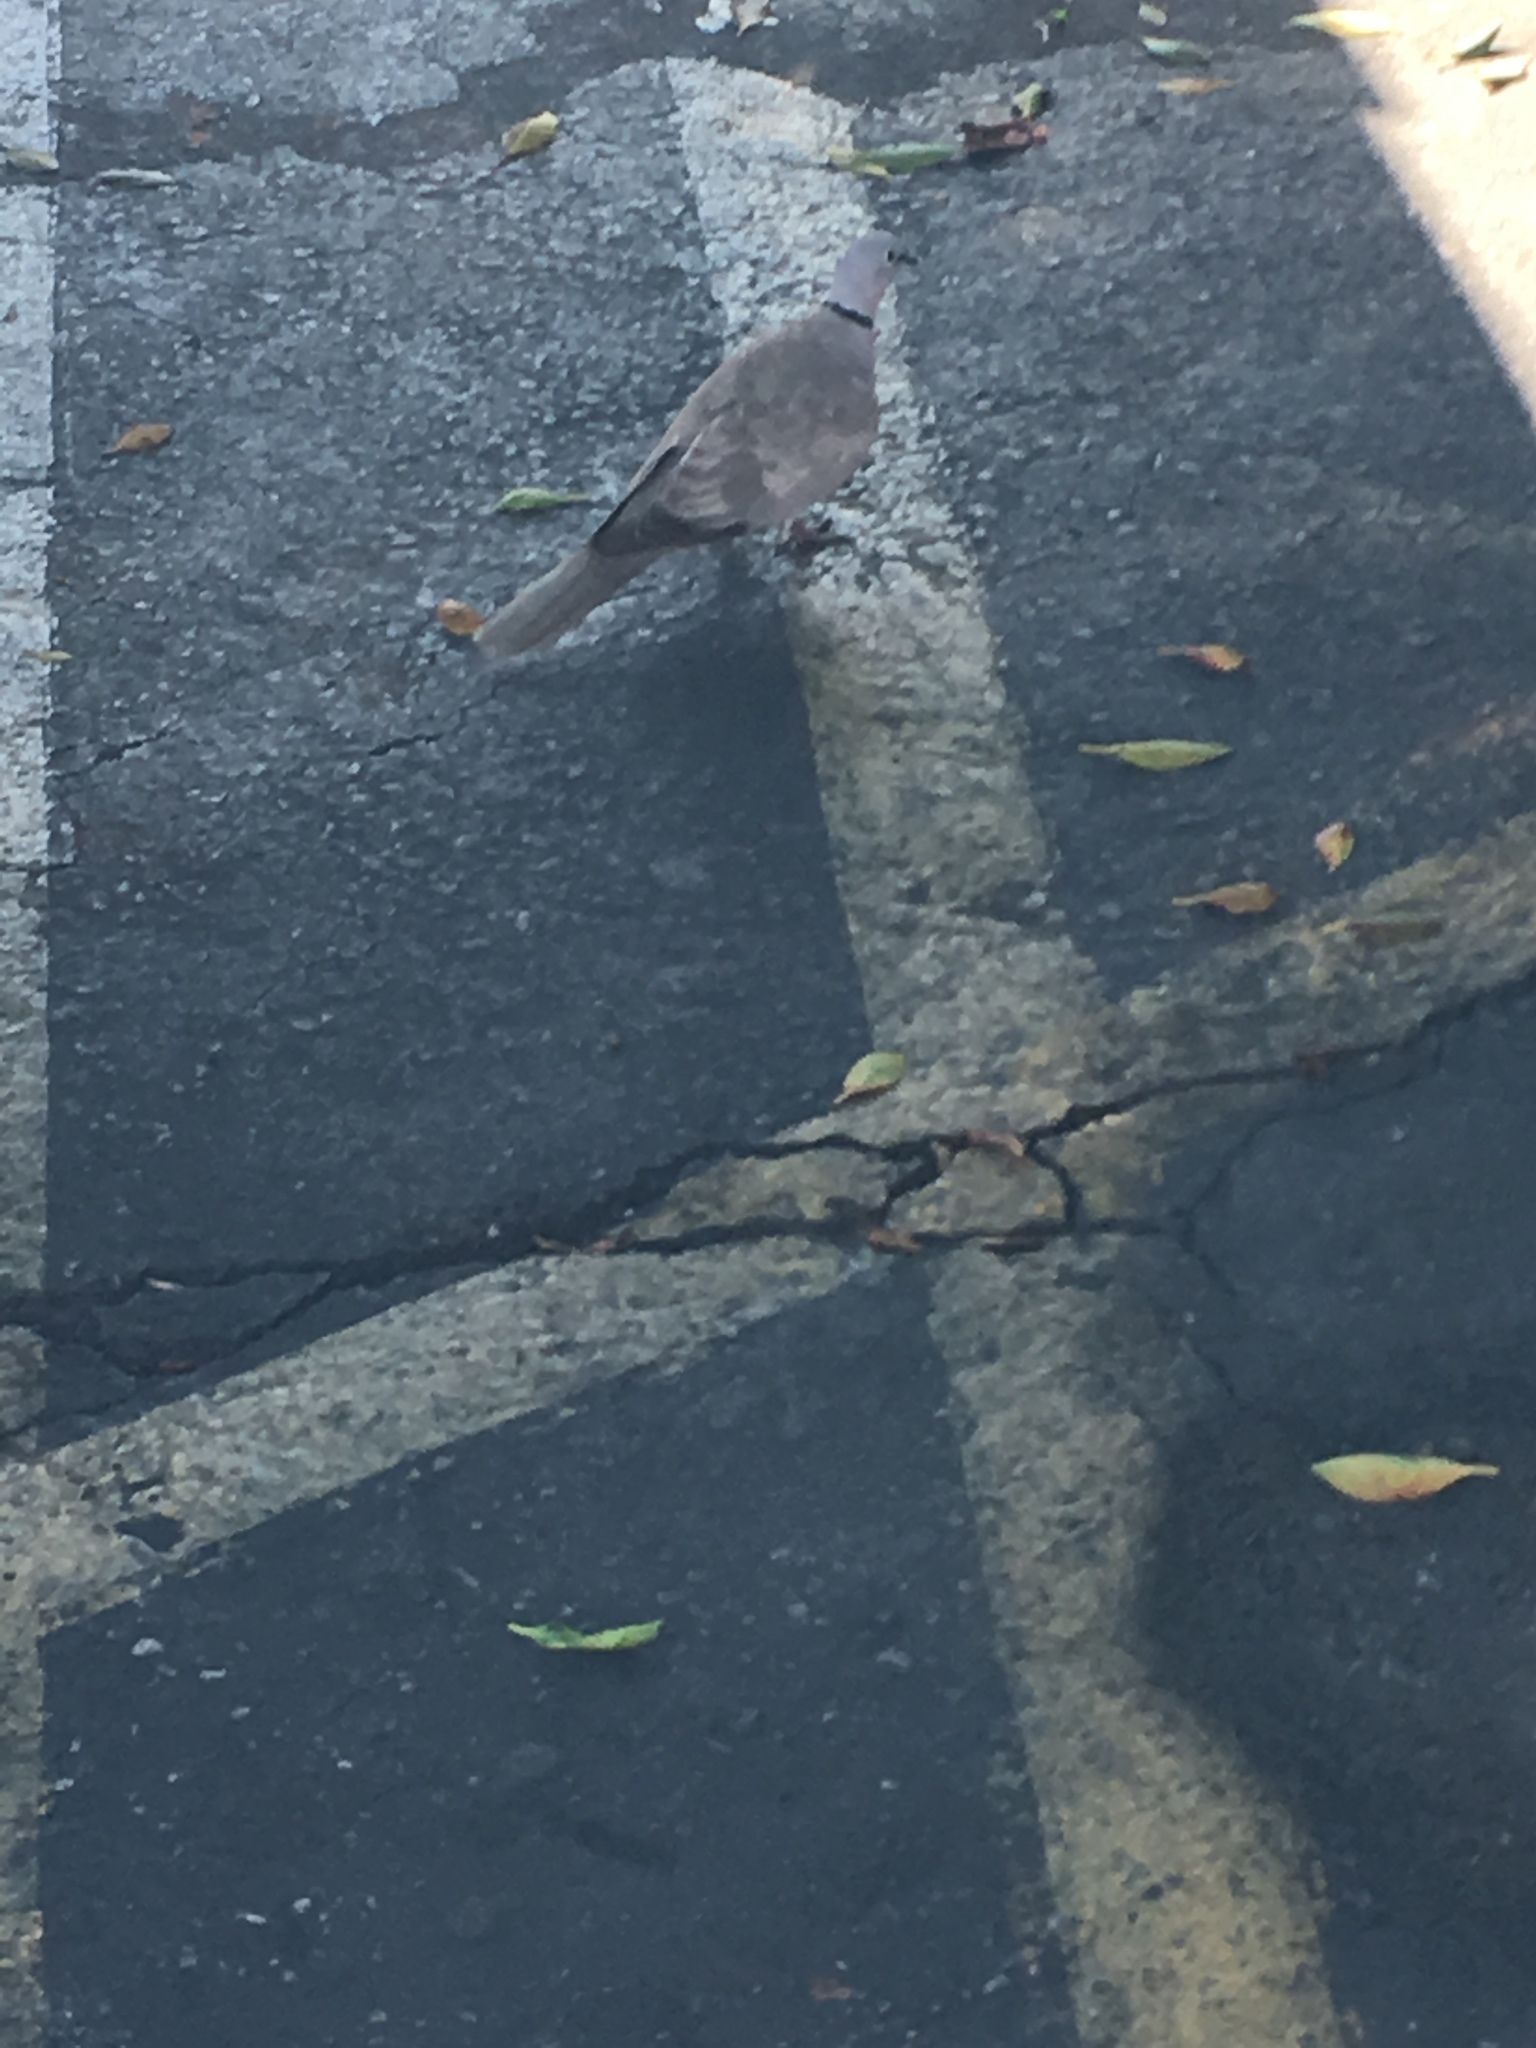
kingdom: Animalia
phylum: Chordata
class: Aves
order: Columbiformes
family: Columbidae
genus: Streptopelia
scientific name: Streptopelia decaocto
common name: Eurasian collared dove
